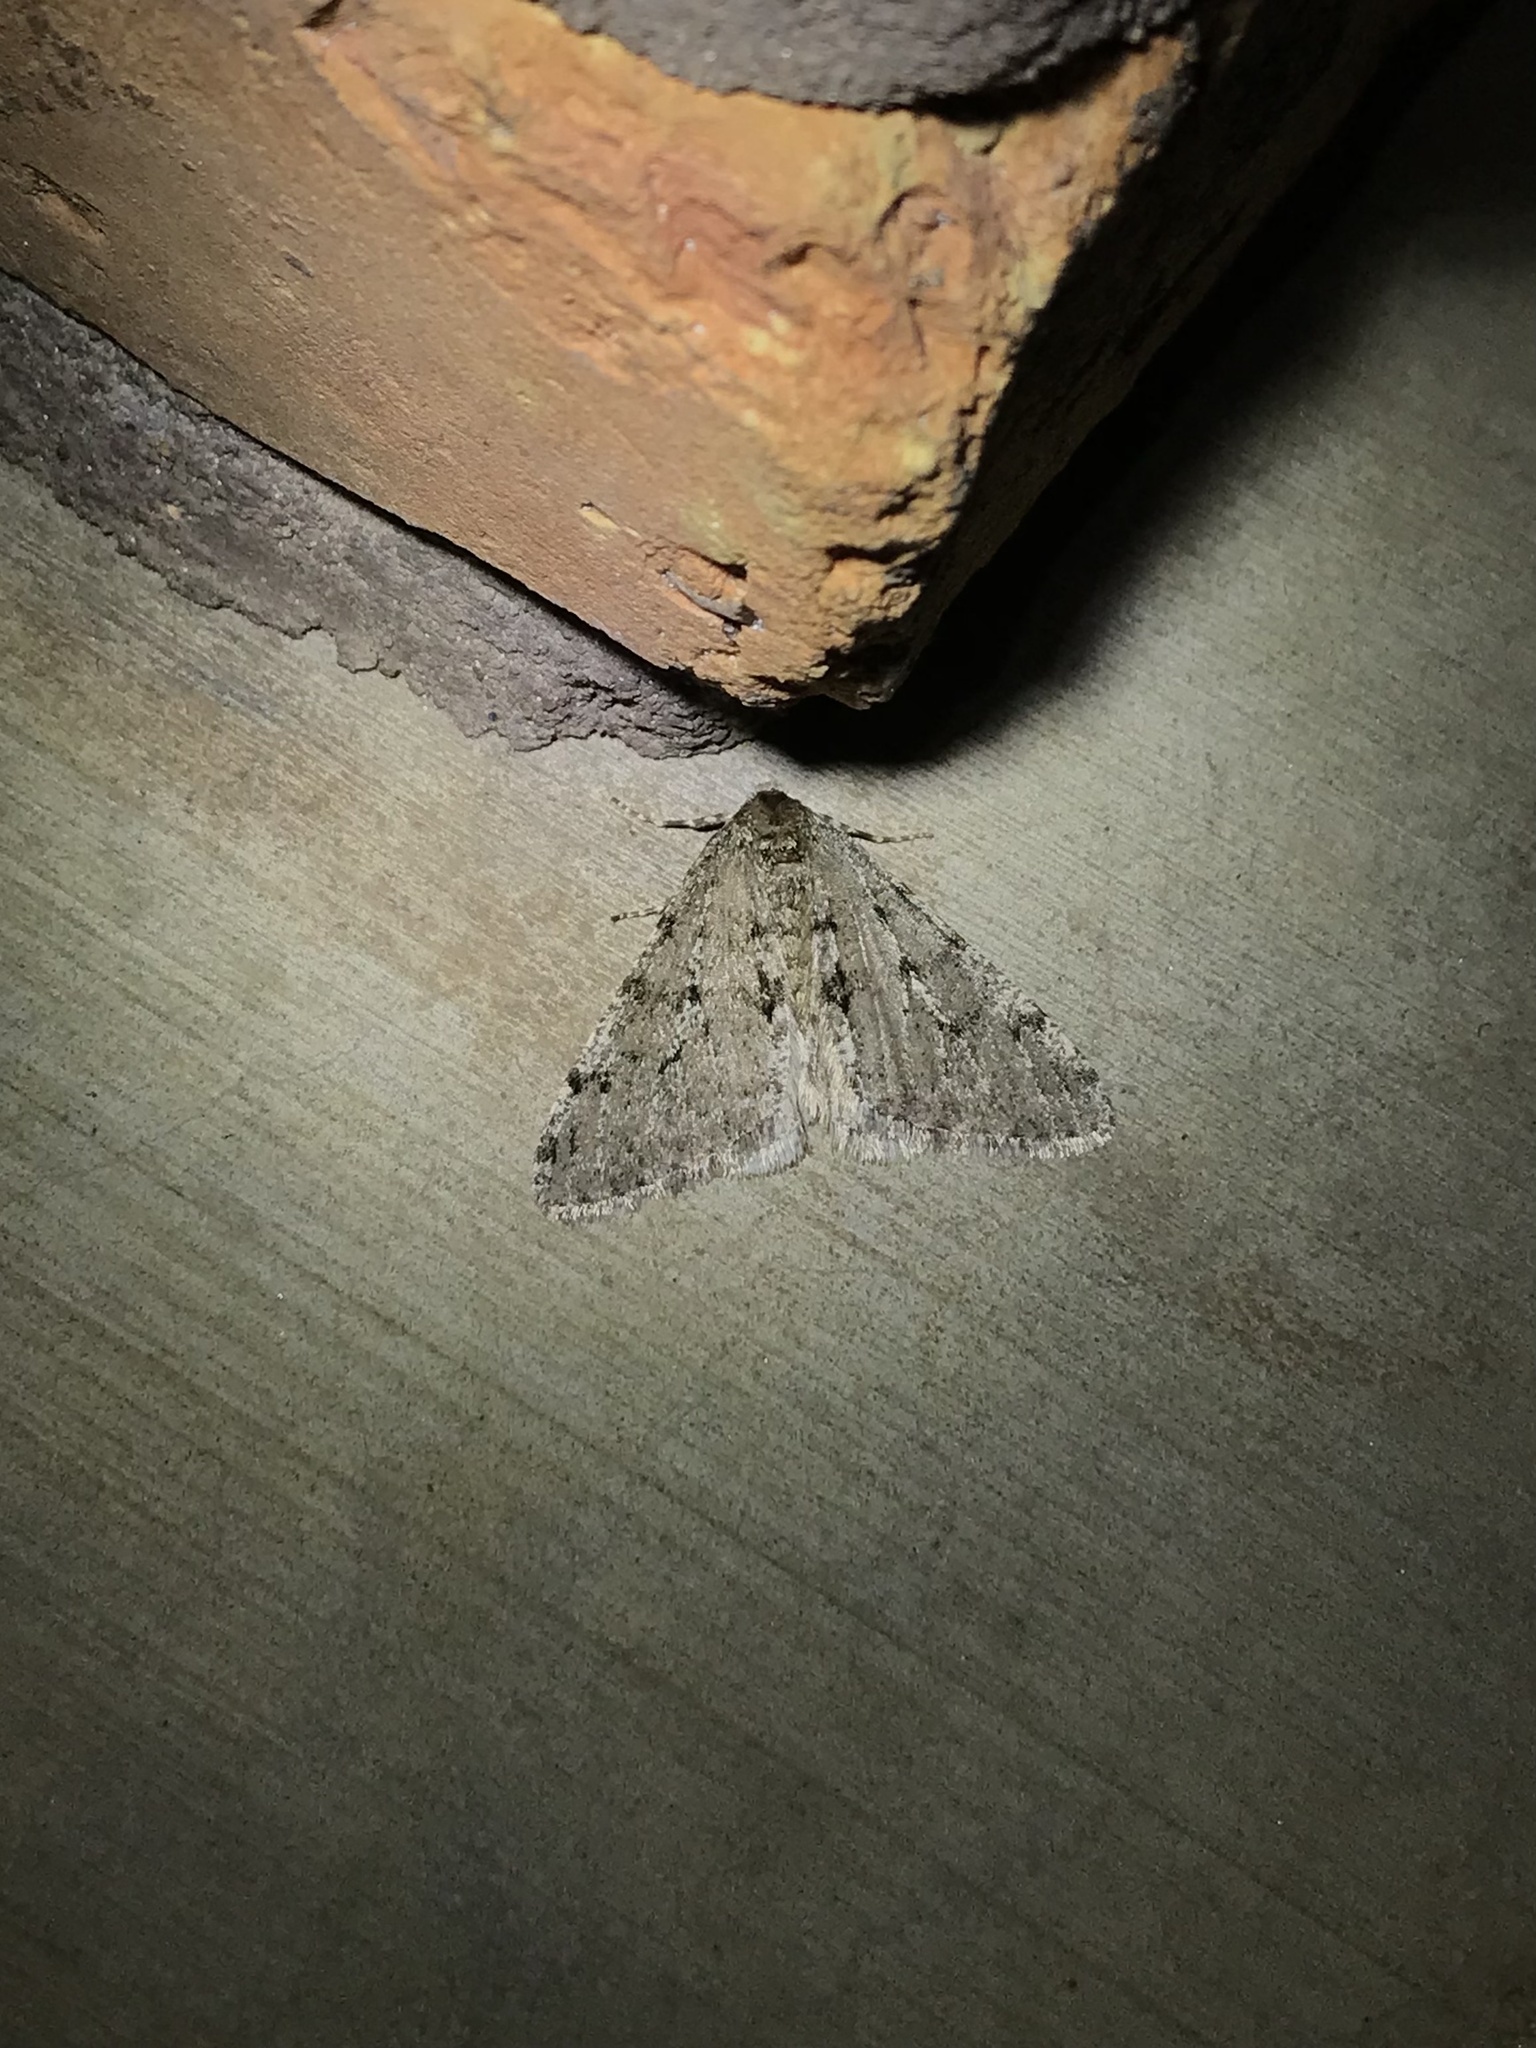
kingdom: Animalia
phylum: Arthropoda
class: Insecta
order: Lepidoptera
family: Geometridae
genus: Phigalia
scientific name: Phigalia strigataria
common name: Small phigalia
